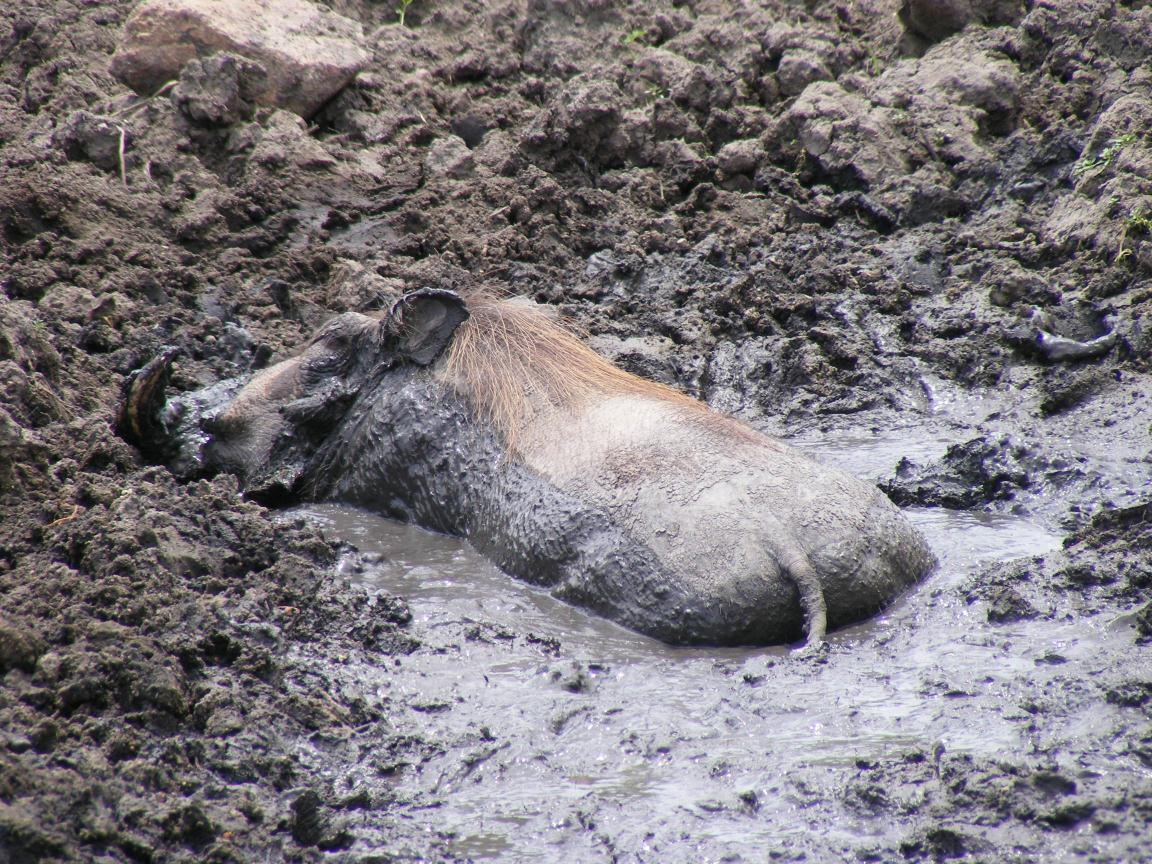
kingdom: Animalia
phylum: Chordata
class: Mammalia
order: Artiodactyla
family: Suidae
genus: Phacochoerus
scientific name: Phacochoerus africanus
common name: Common warthog
